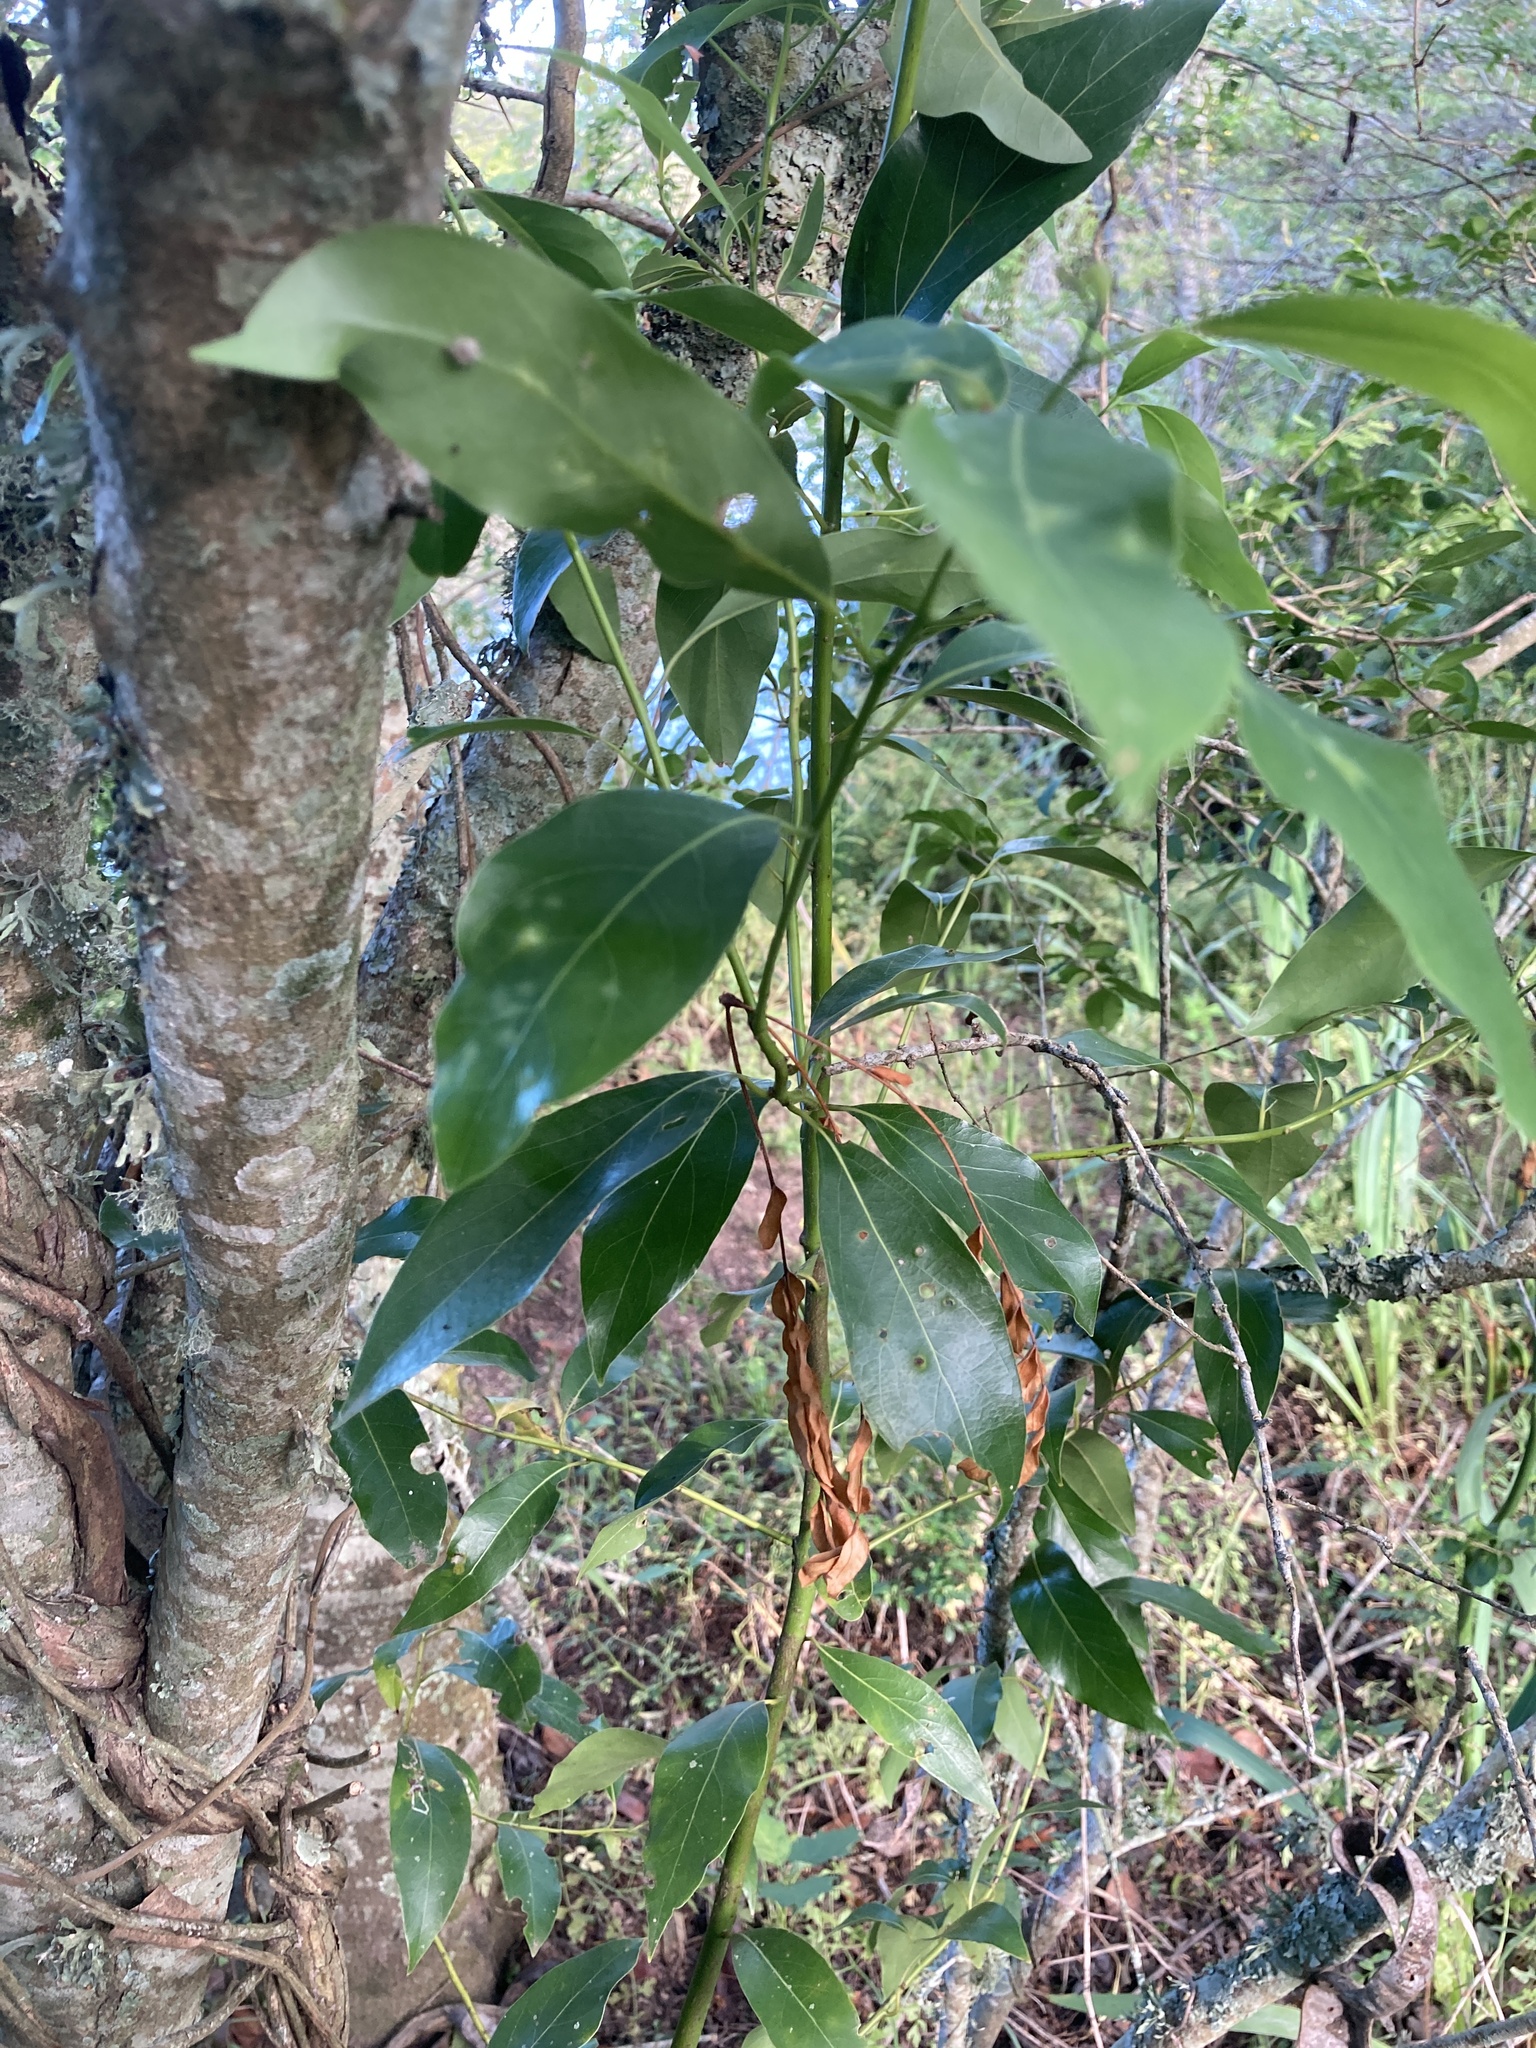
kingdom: Plantae
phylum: Tracheophyta
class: Magnoliopsida
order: Laurales
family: Lauraceae
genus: Ocotea
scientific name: Ocotea acutifolia
